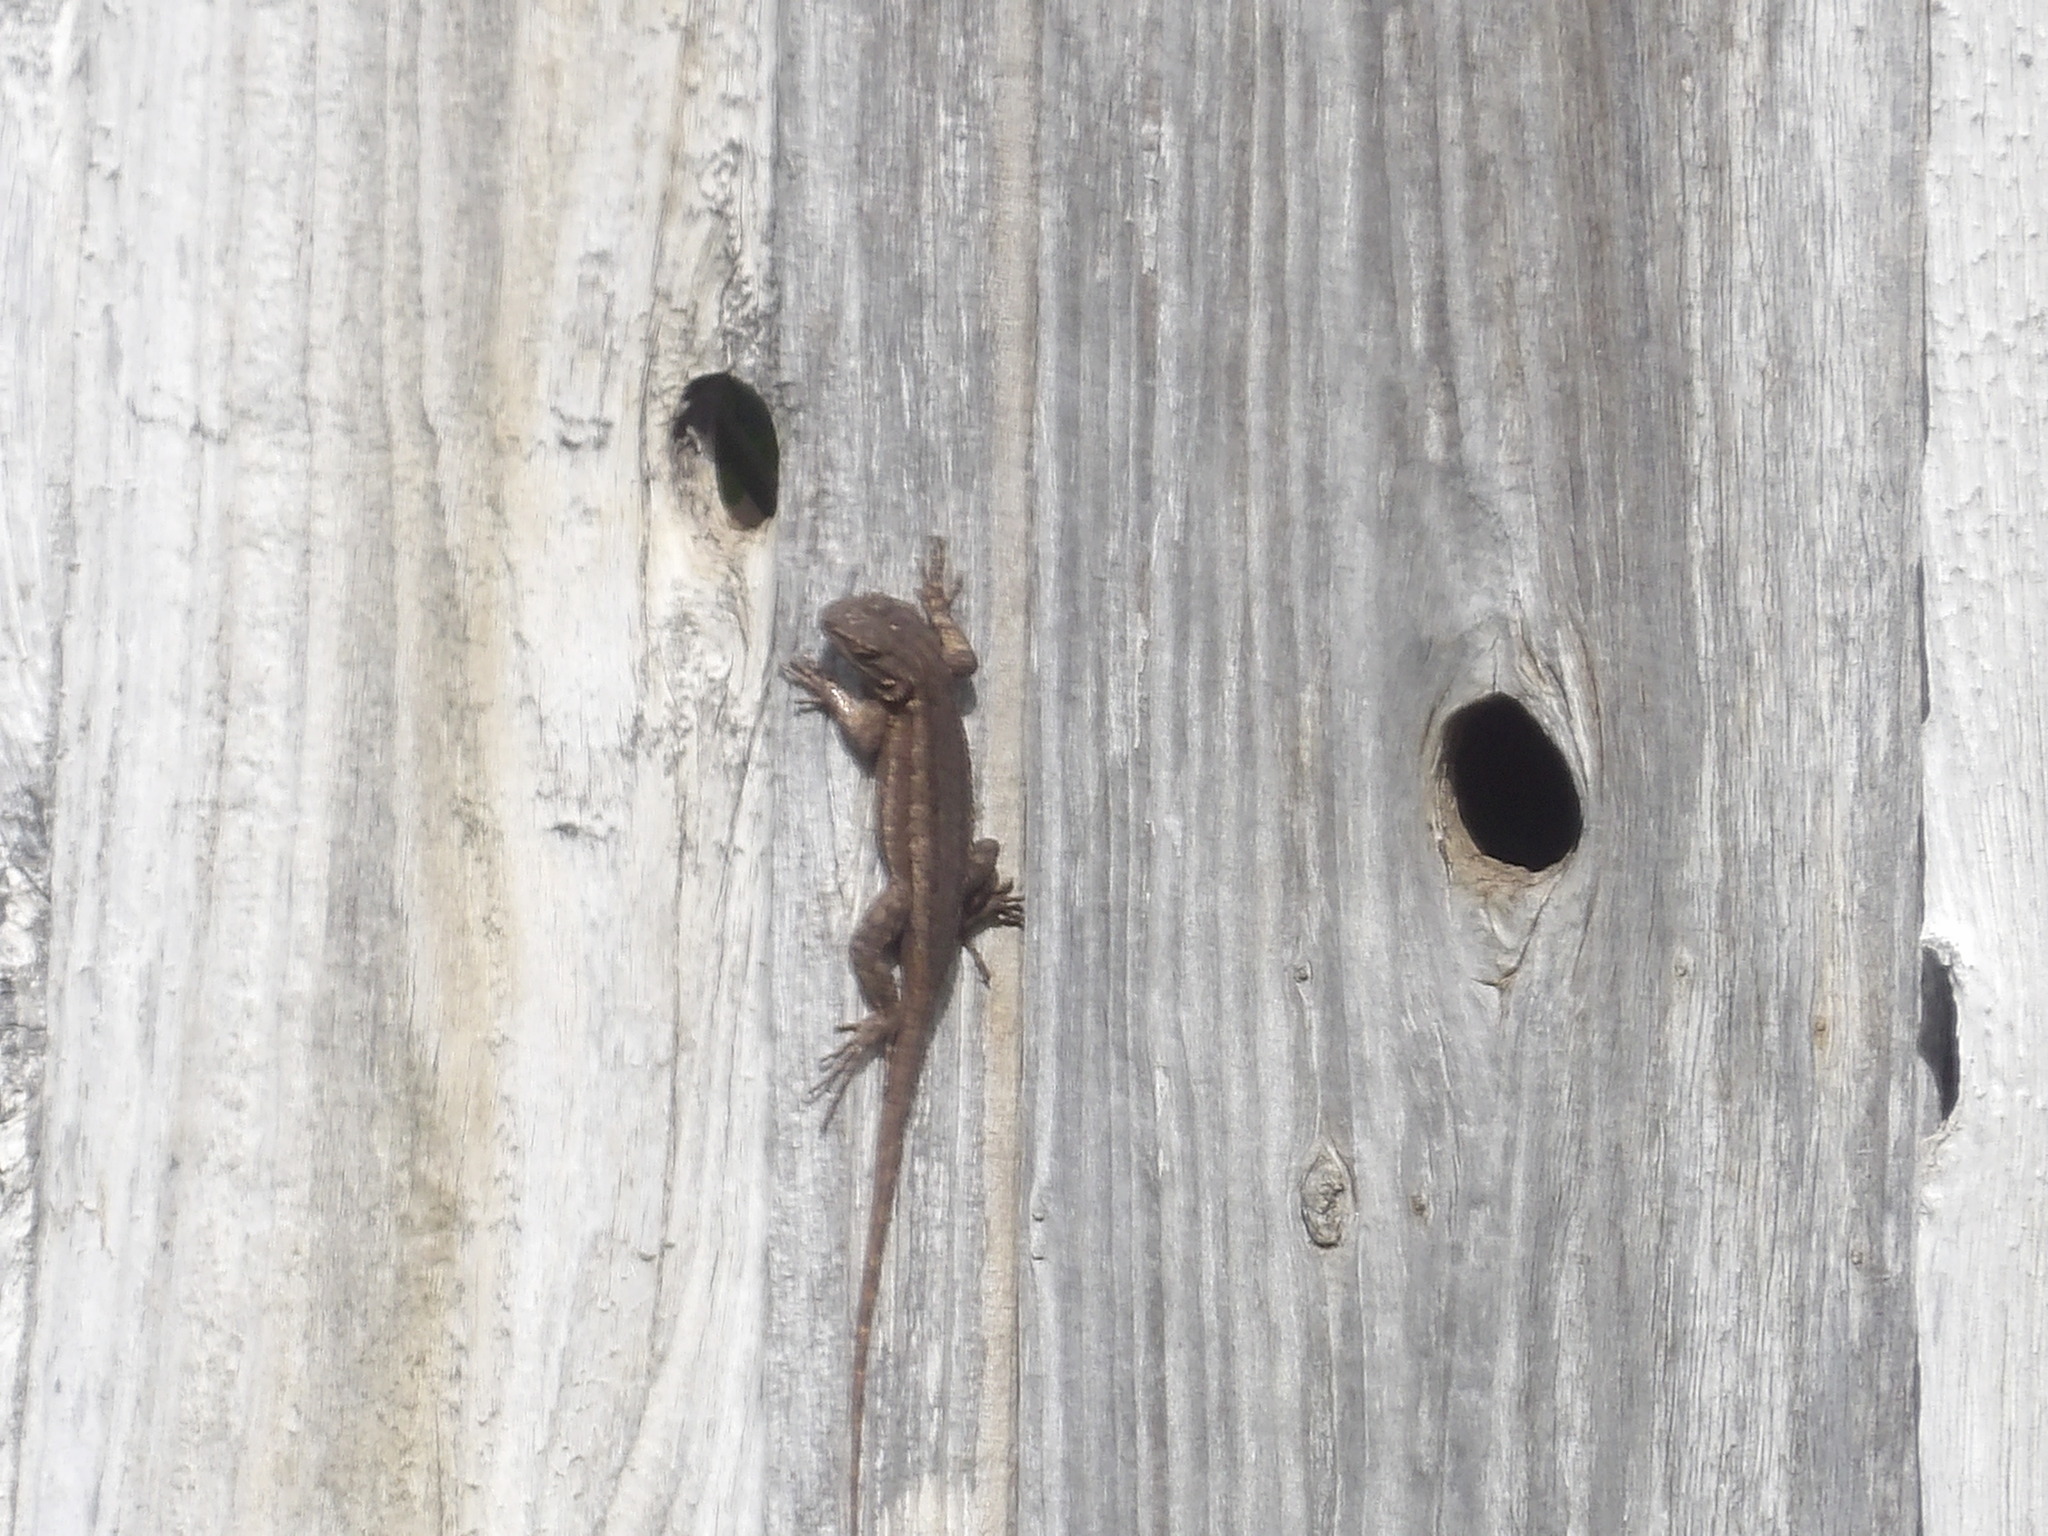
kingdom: Animalia
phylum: Chordata
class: Squamata
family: Phrynosomatidae
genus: Sceloporus
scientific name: Sceloporus occidentalis
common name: Western fence lizard
